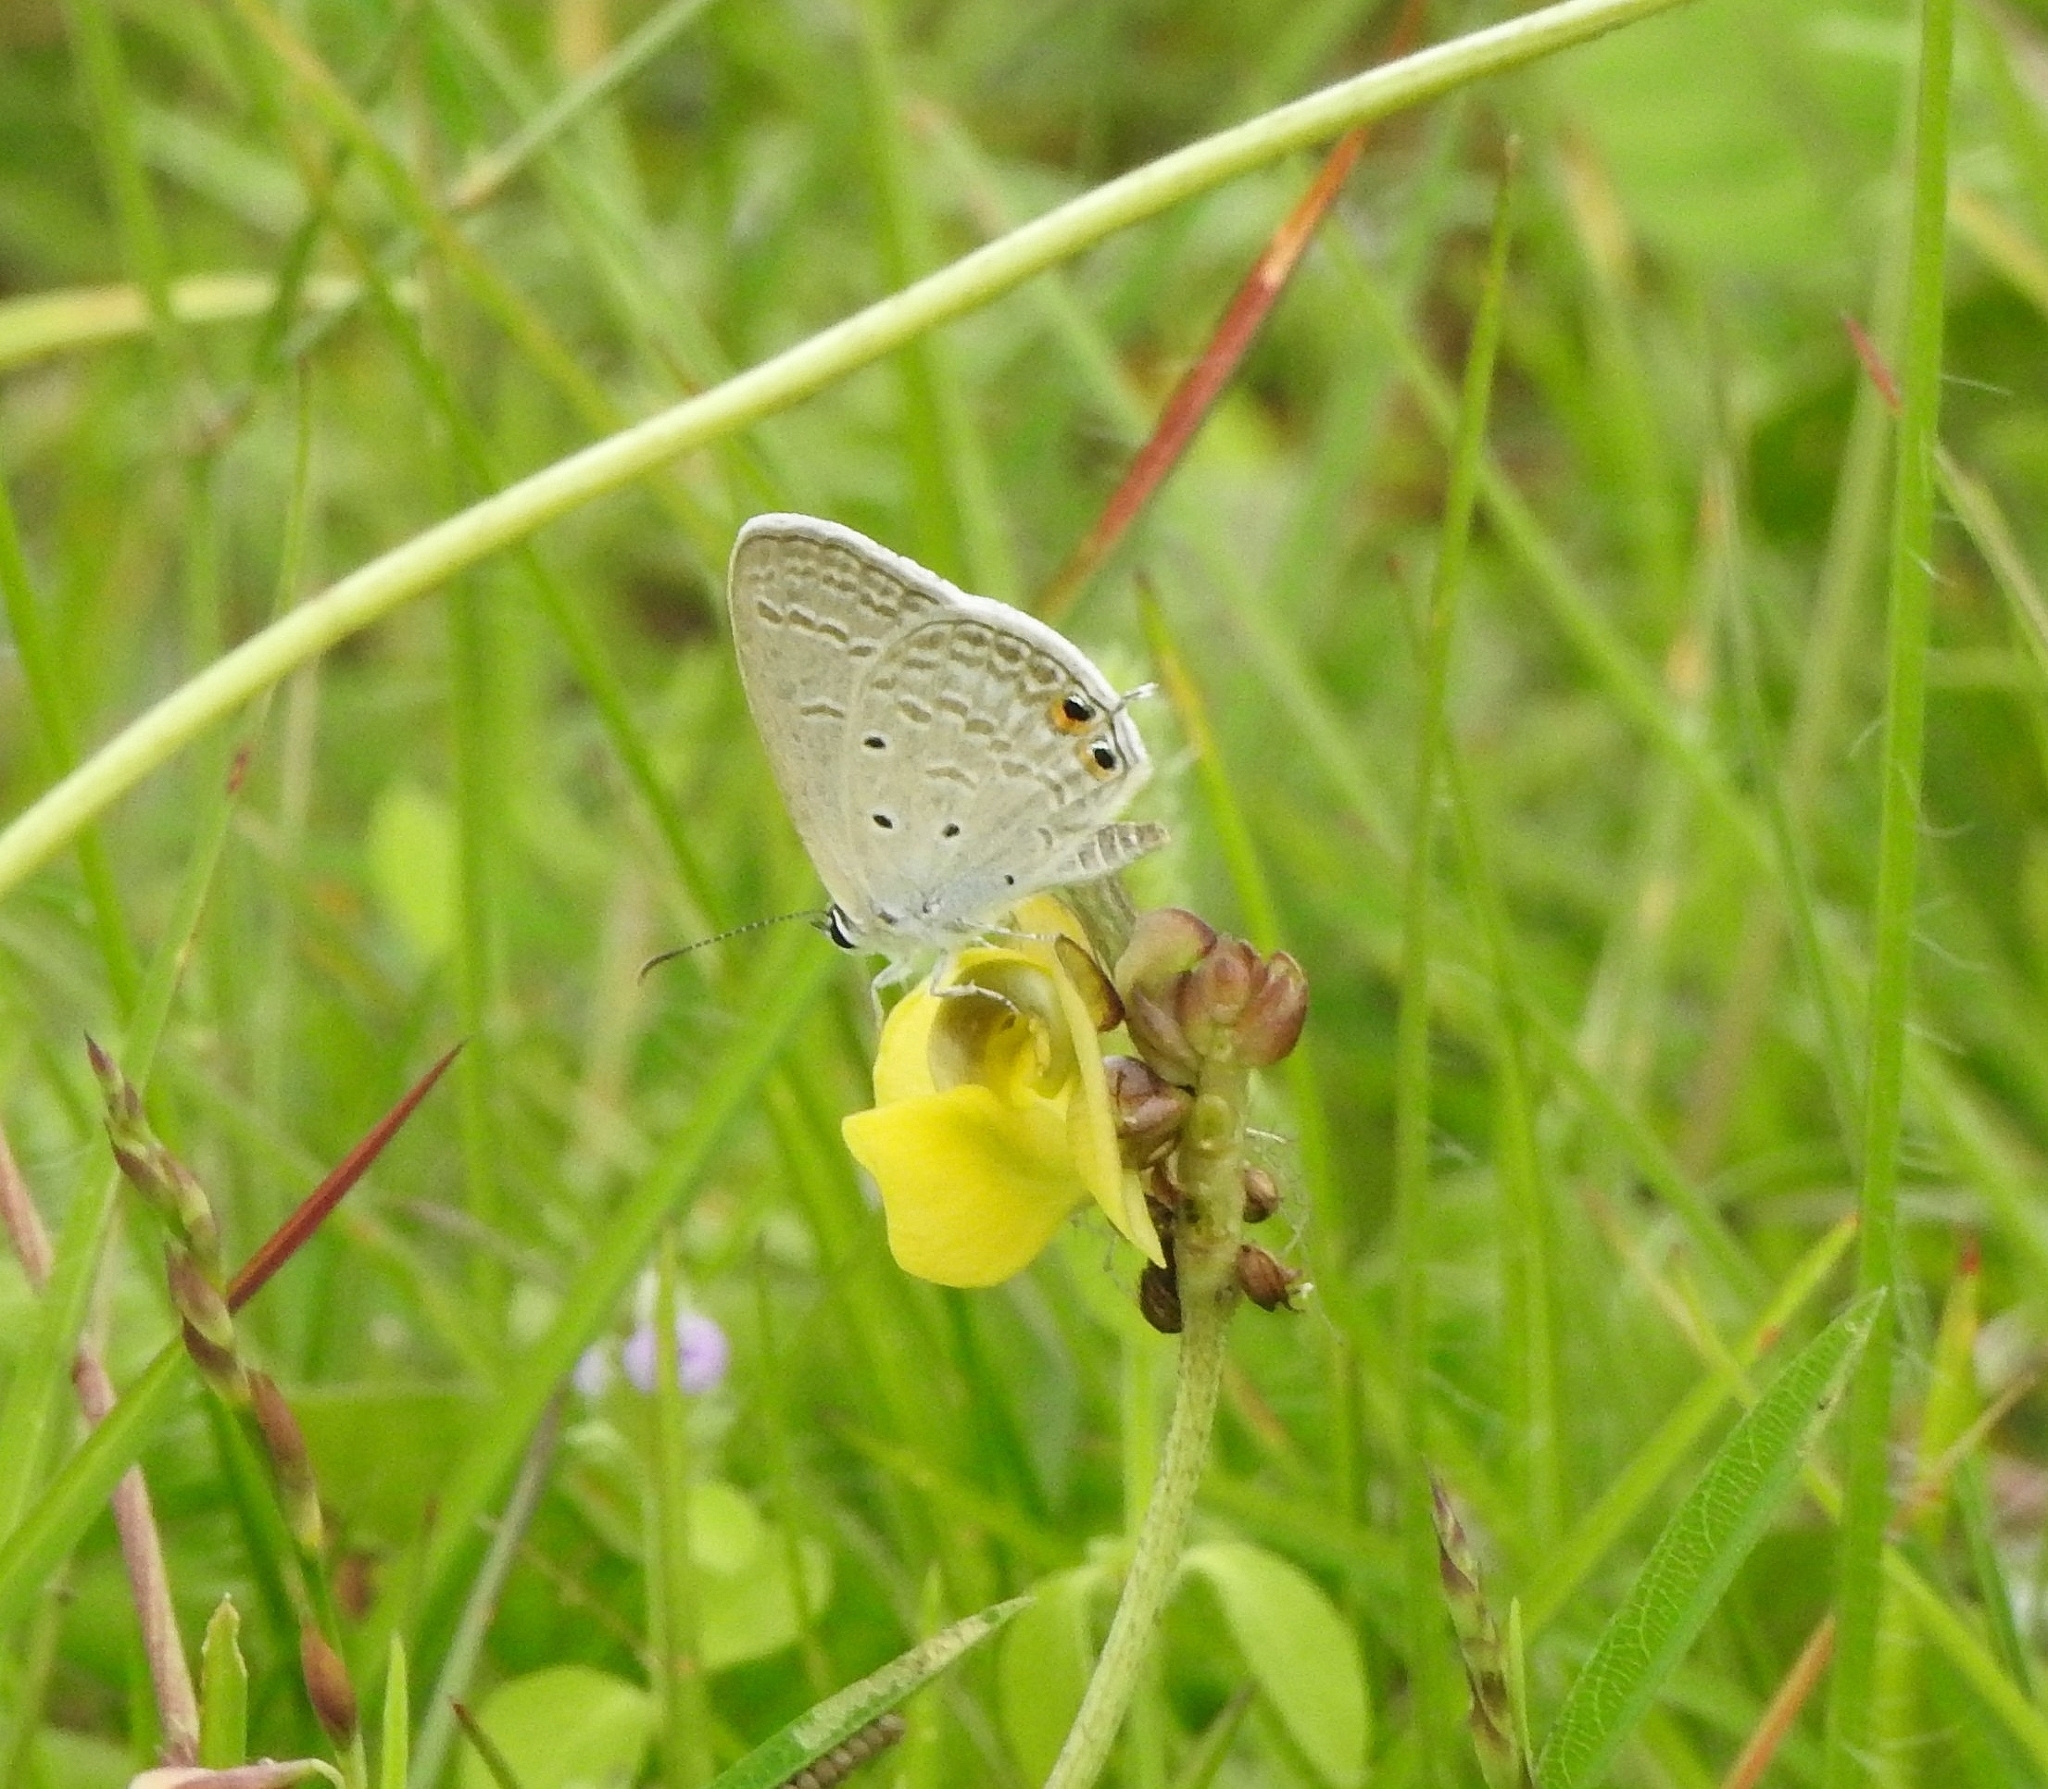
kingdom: Animalia
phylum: Arthropoda
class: Insecta
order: Lepidoptera
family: Lycaenidae
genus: Euchrysops
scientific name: Euchrysops cnejus
